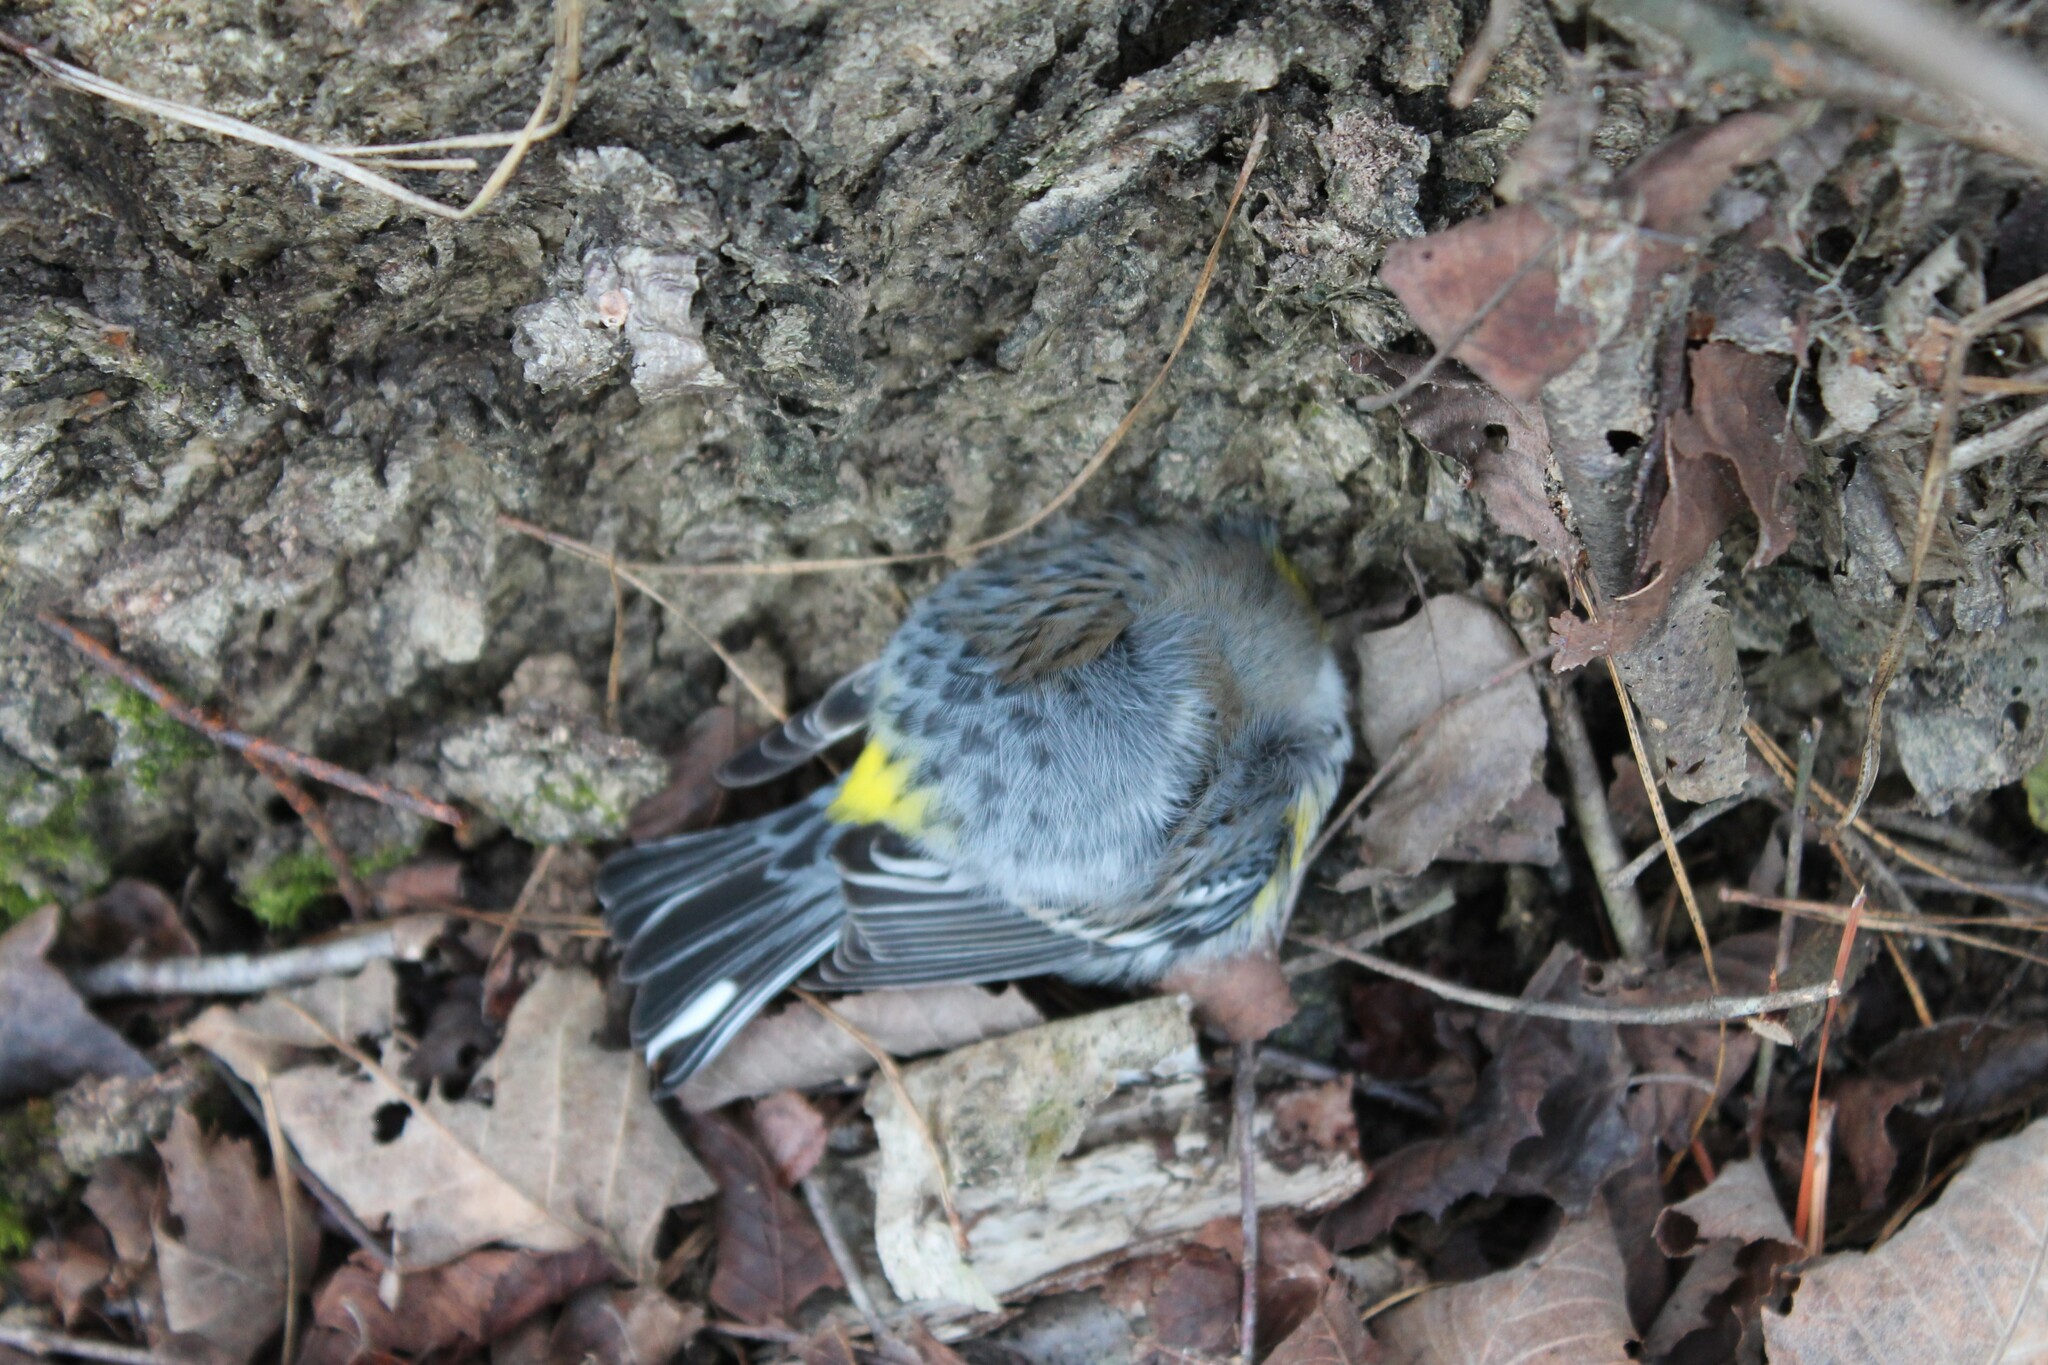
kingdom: Animalia
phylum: Chordata
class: Aves
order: Passeriformes
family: Parulidae
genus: Setophaga
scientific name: Setophaga coronata
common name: Myrtle warbler
